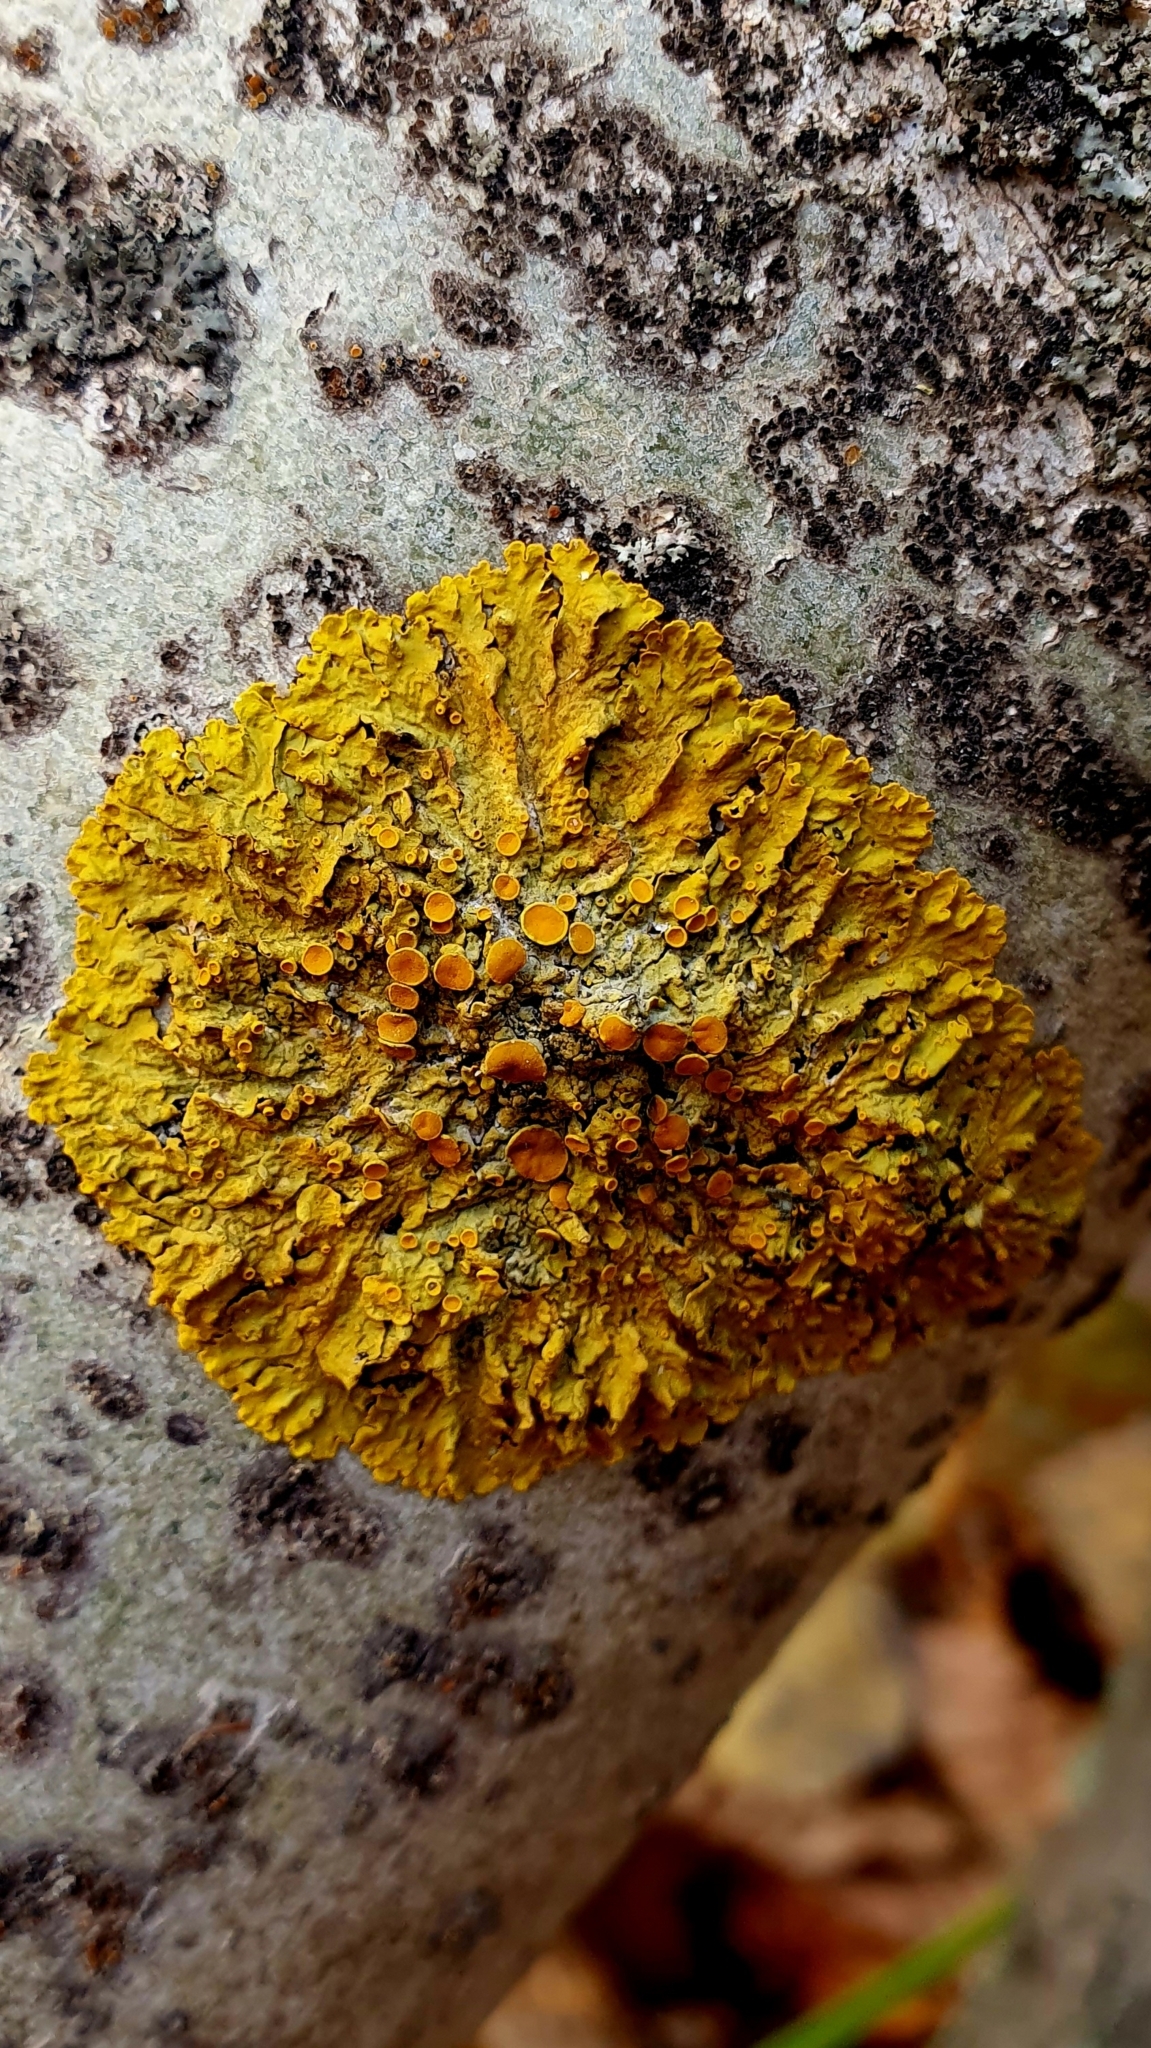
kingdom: Fungi
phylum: Ascomycota
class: Lecanoromycetes
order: Teloschistales
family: Teloschistaceae
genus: Xanthoria
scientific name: Xanthoria parietina
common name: Common orange lichen
